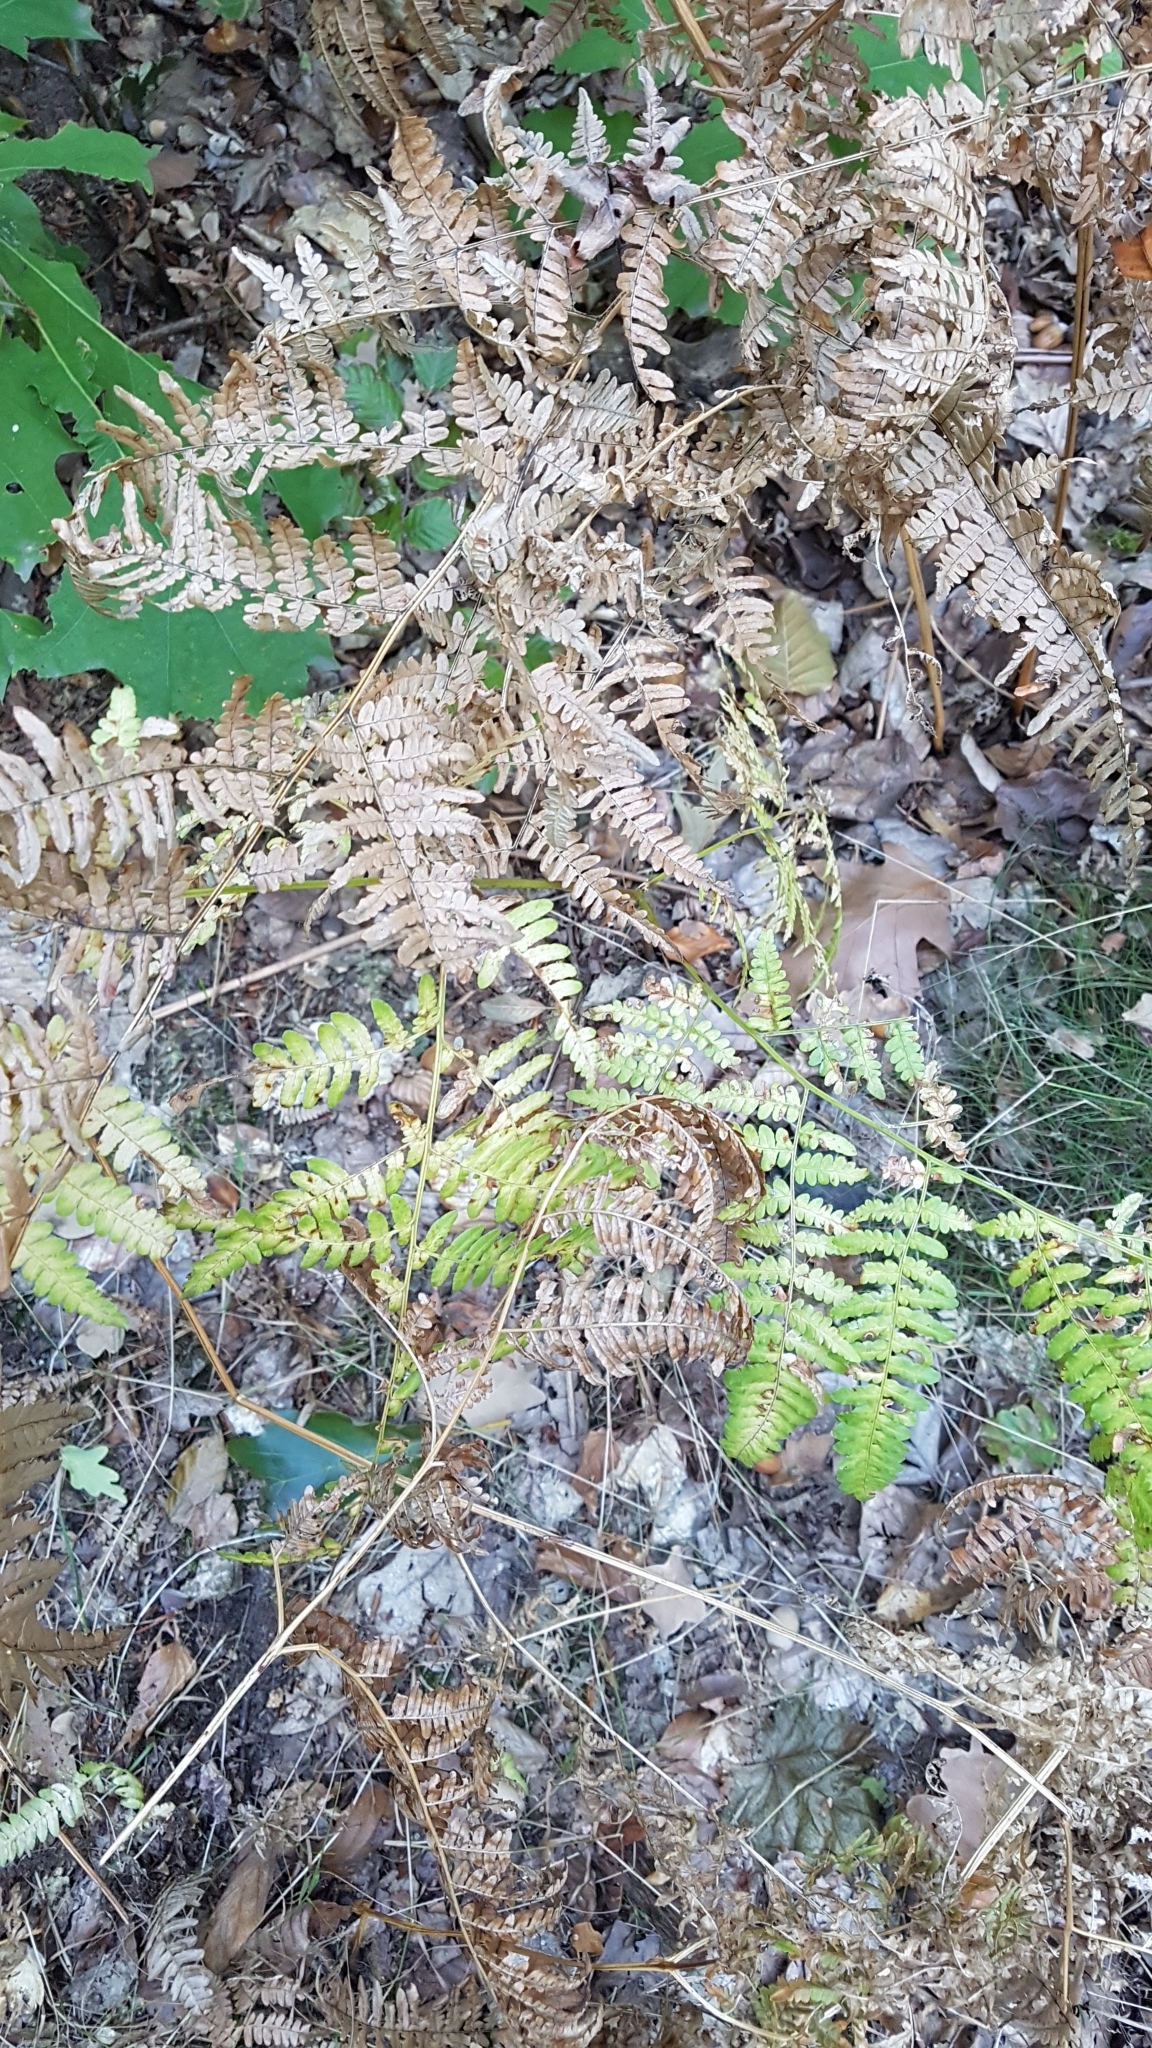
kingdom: Plantae
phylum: Tracheophyta
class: Polypodiopsida
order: Polypodiales
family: Dennstaedtiaceae
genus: Pteridium
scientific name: Pteridium aquilinum
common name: Bracken
